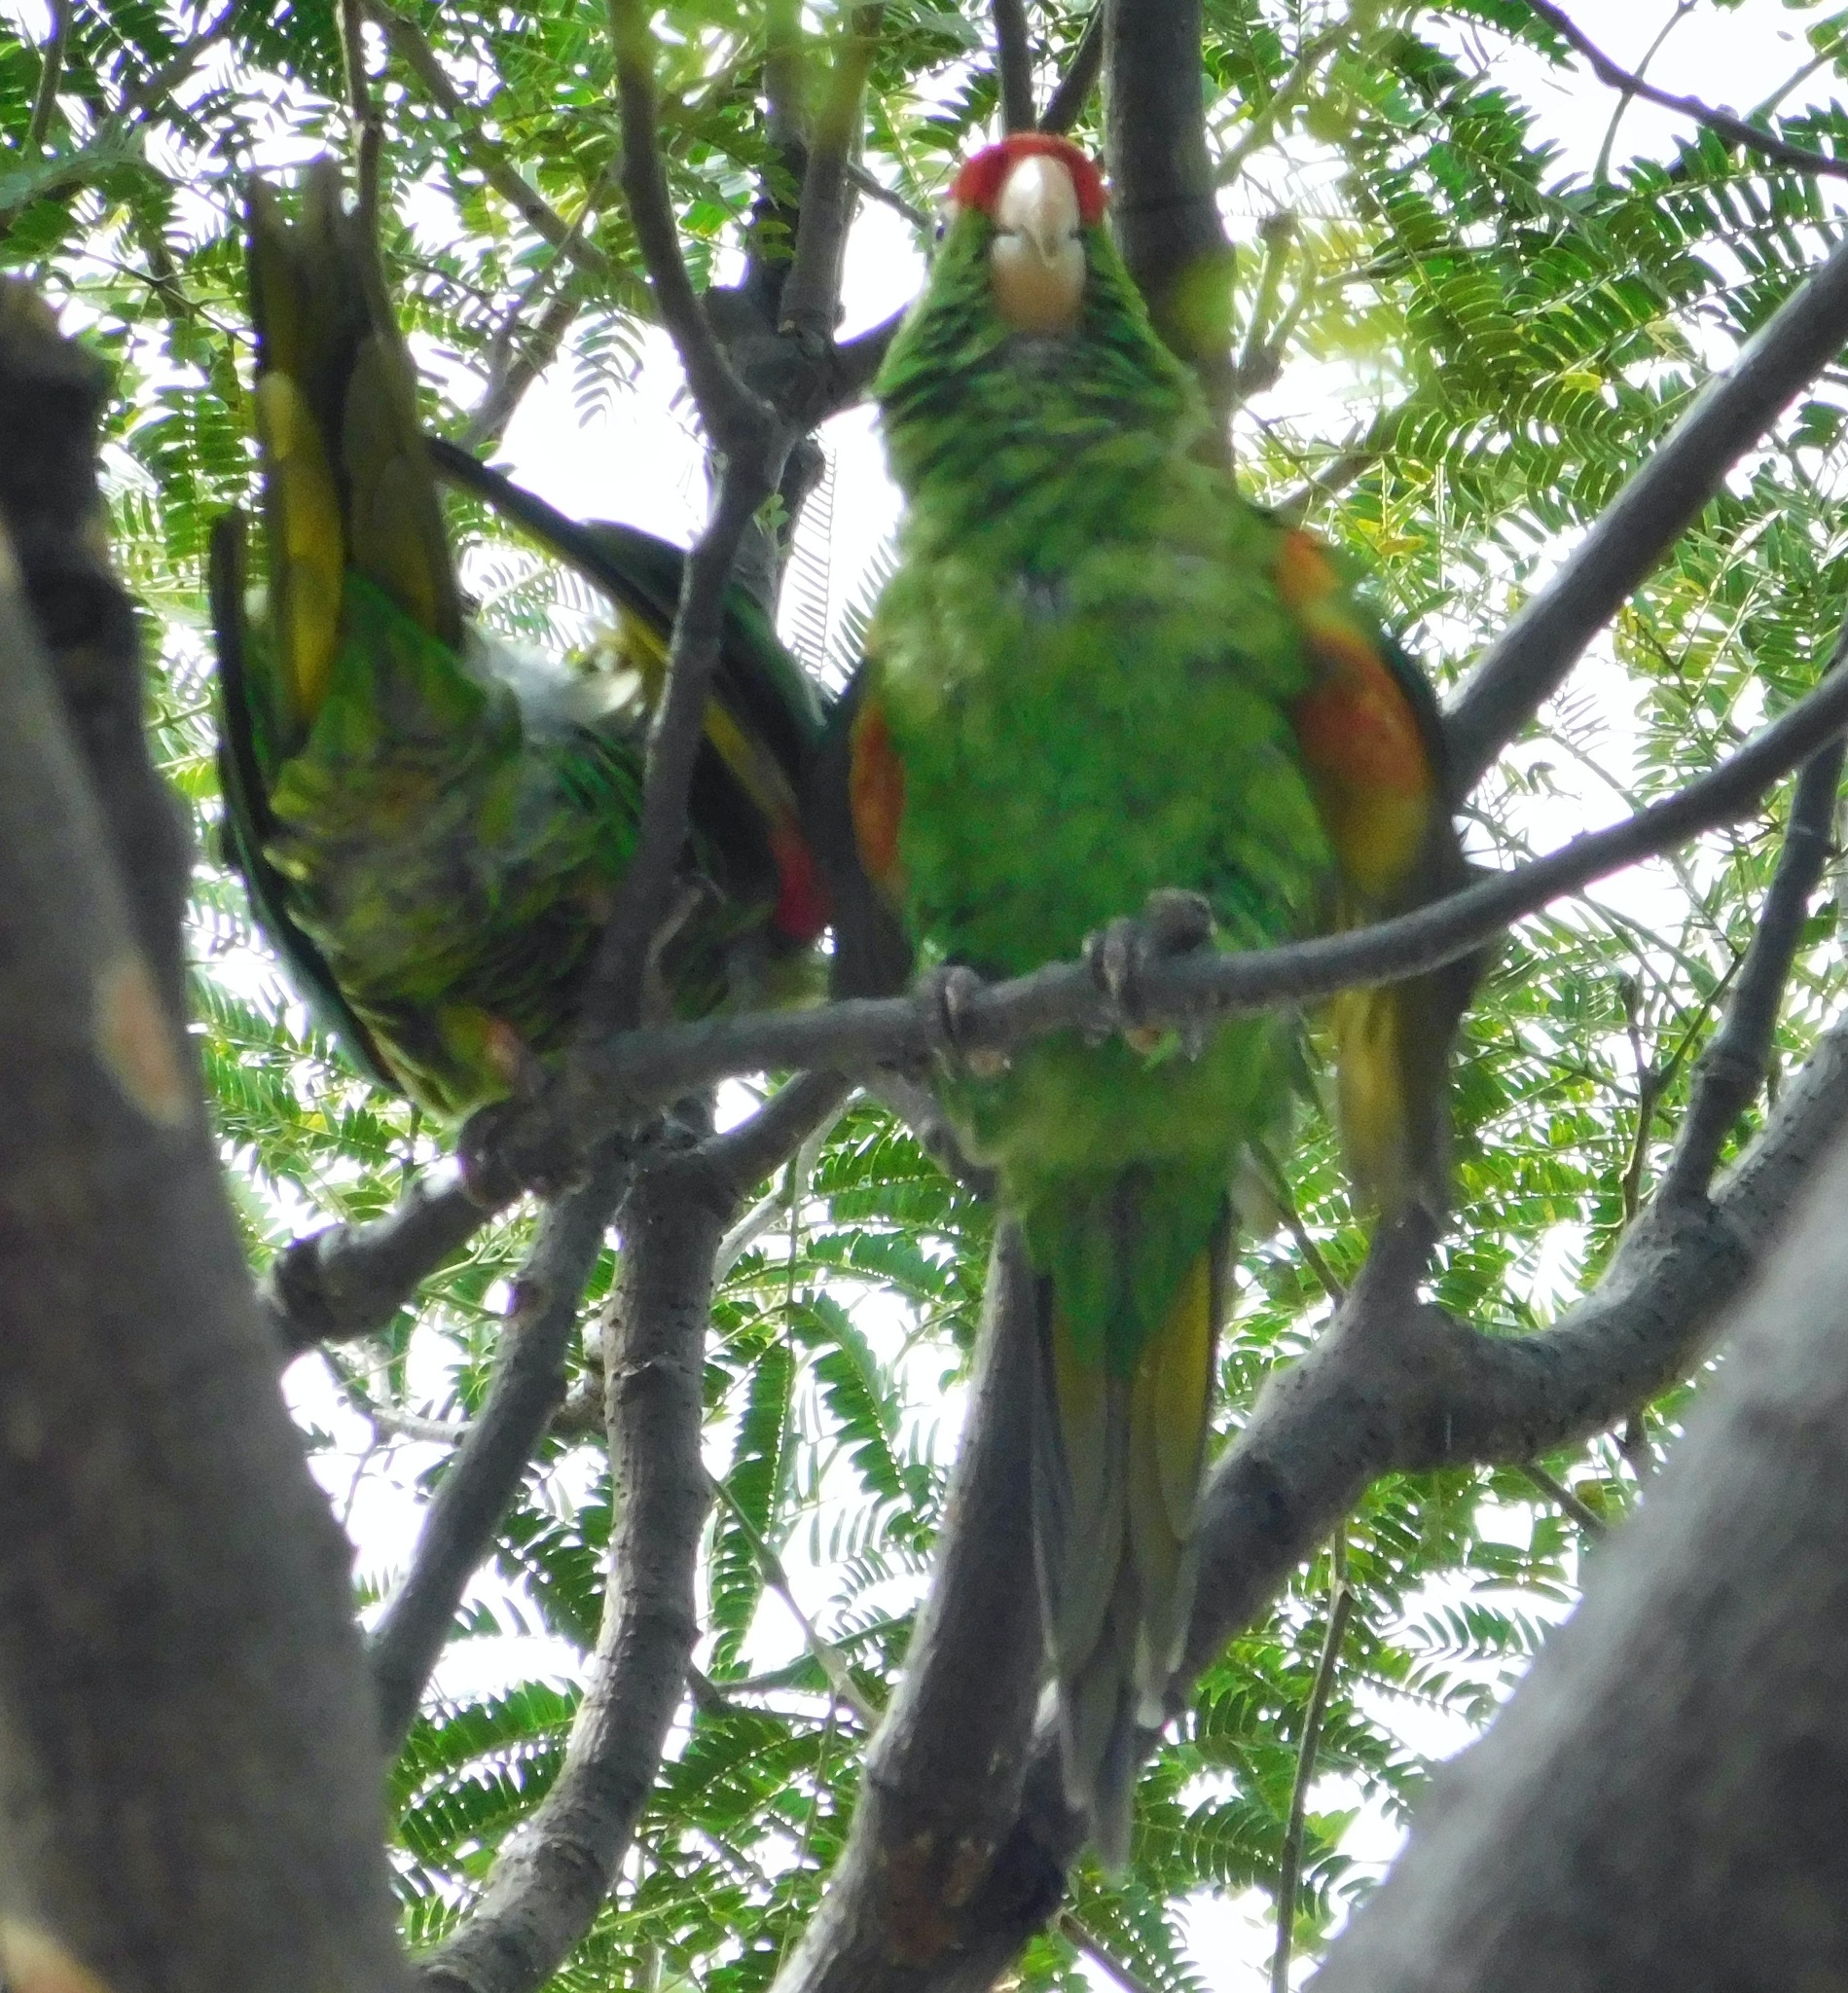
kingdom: Animalia
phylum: Chordata
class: Aves
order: Psittaciformes
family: Psittacidae
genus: Aratinga
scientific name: Aratinga finschi
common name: Crimson-fronted parakeet
